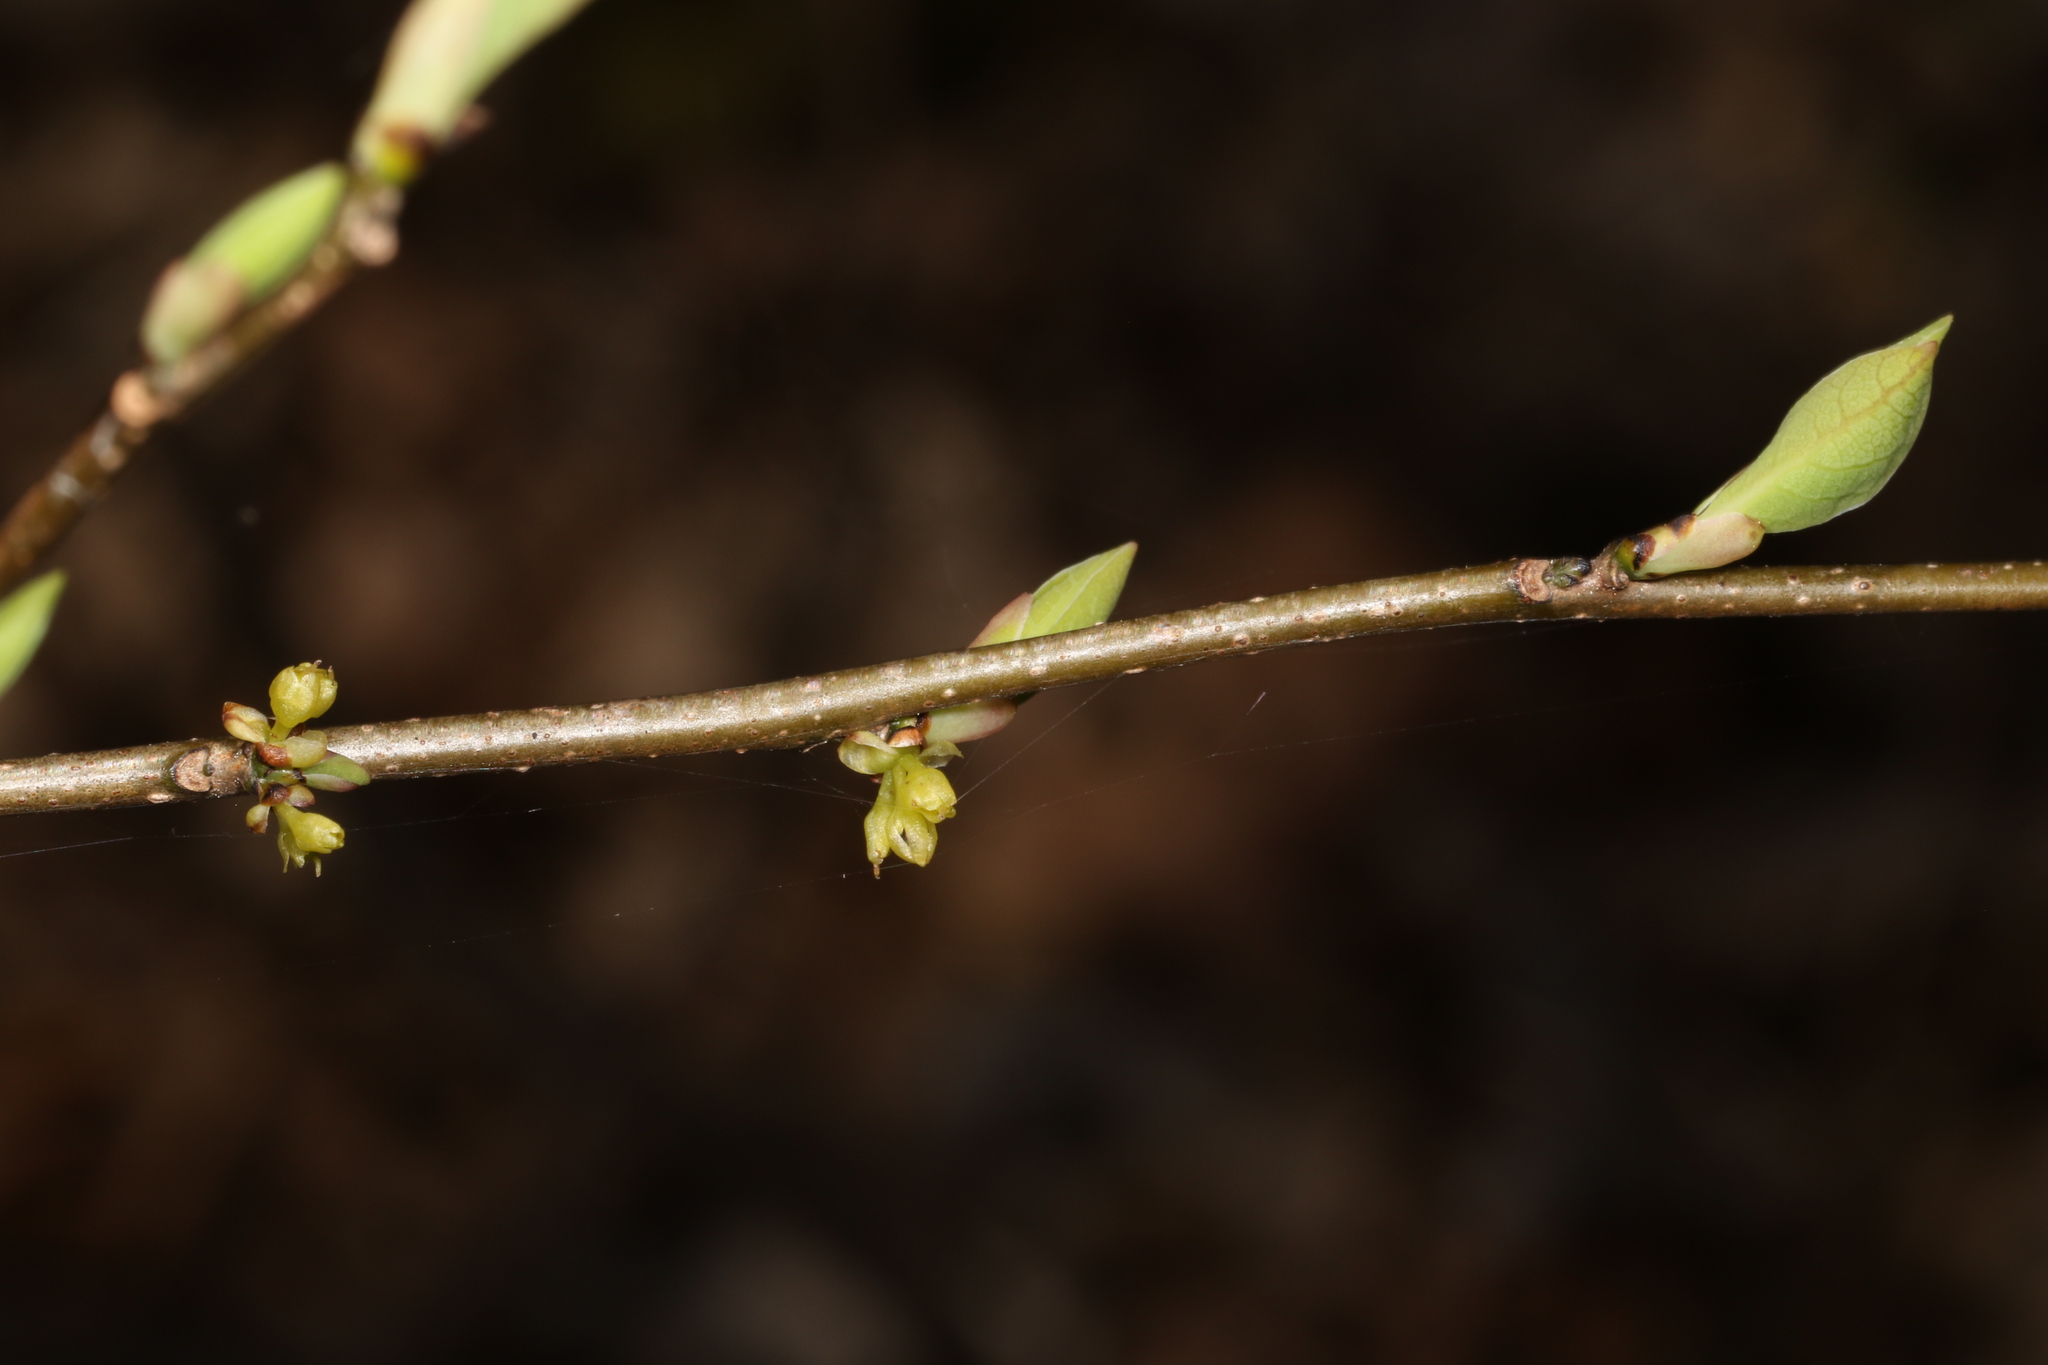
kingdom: Plantae
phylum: Tracheophyta
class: Magnoliopsida
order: Laurales
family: Lauraceae
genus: Lindera
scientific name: Lindera benzoin
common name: Spicebush
